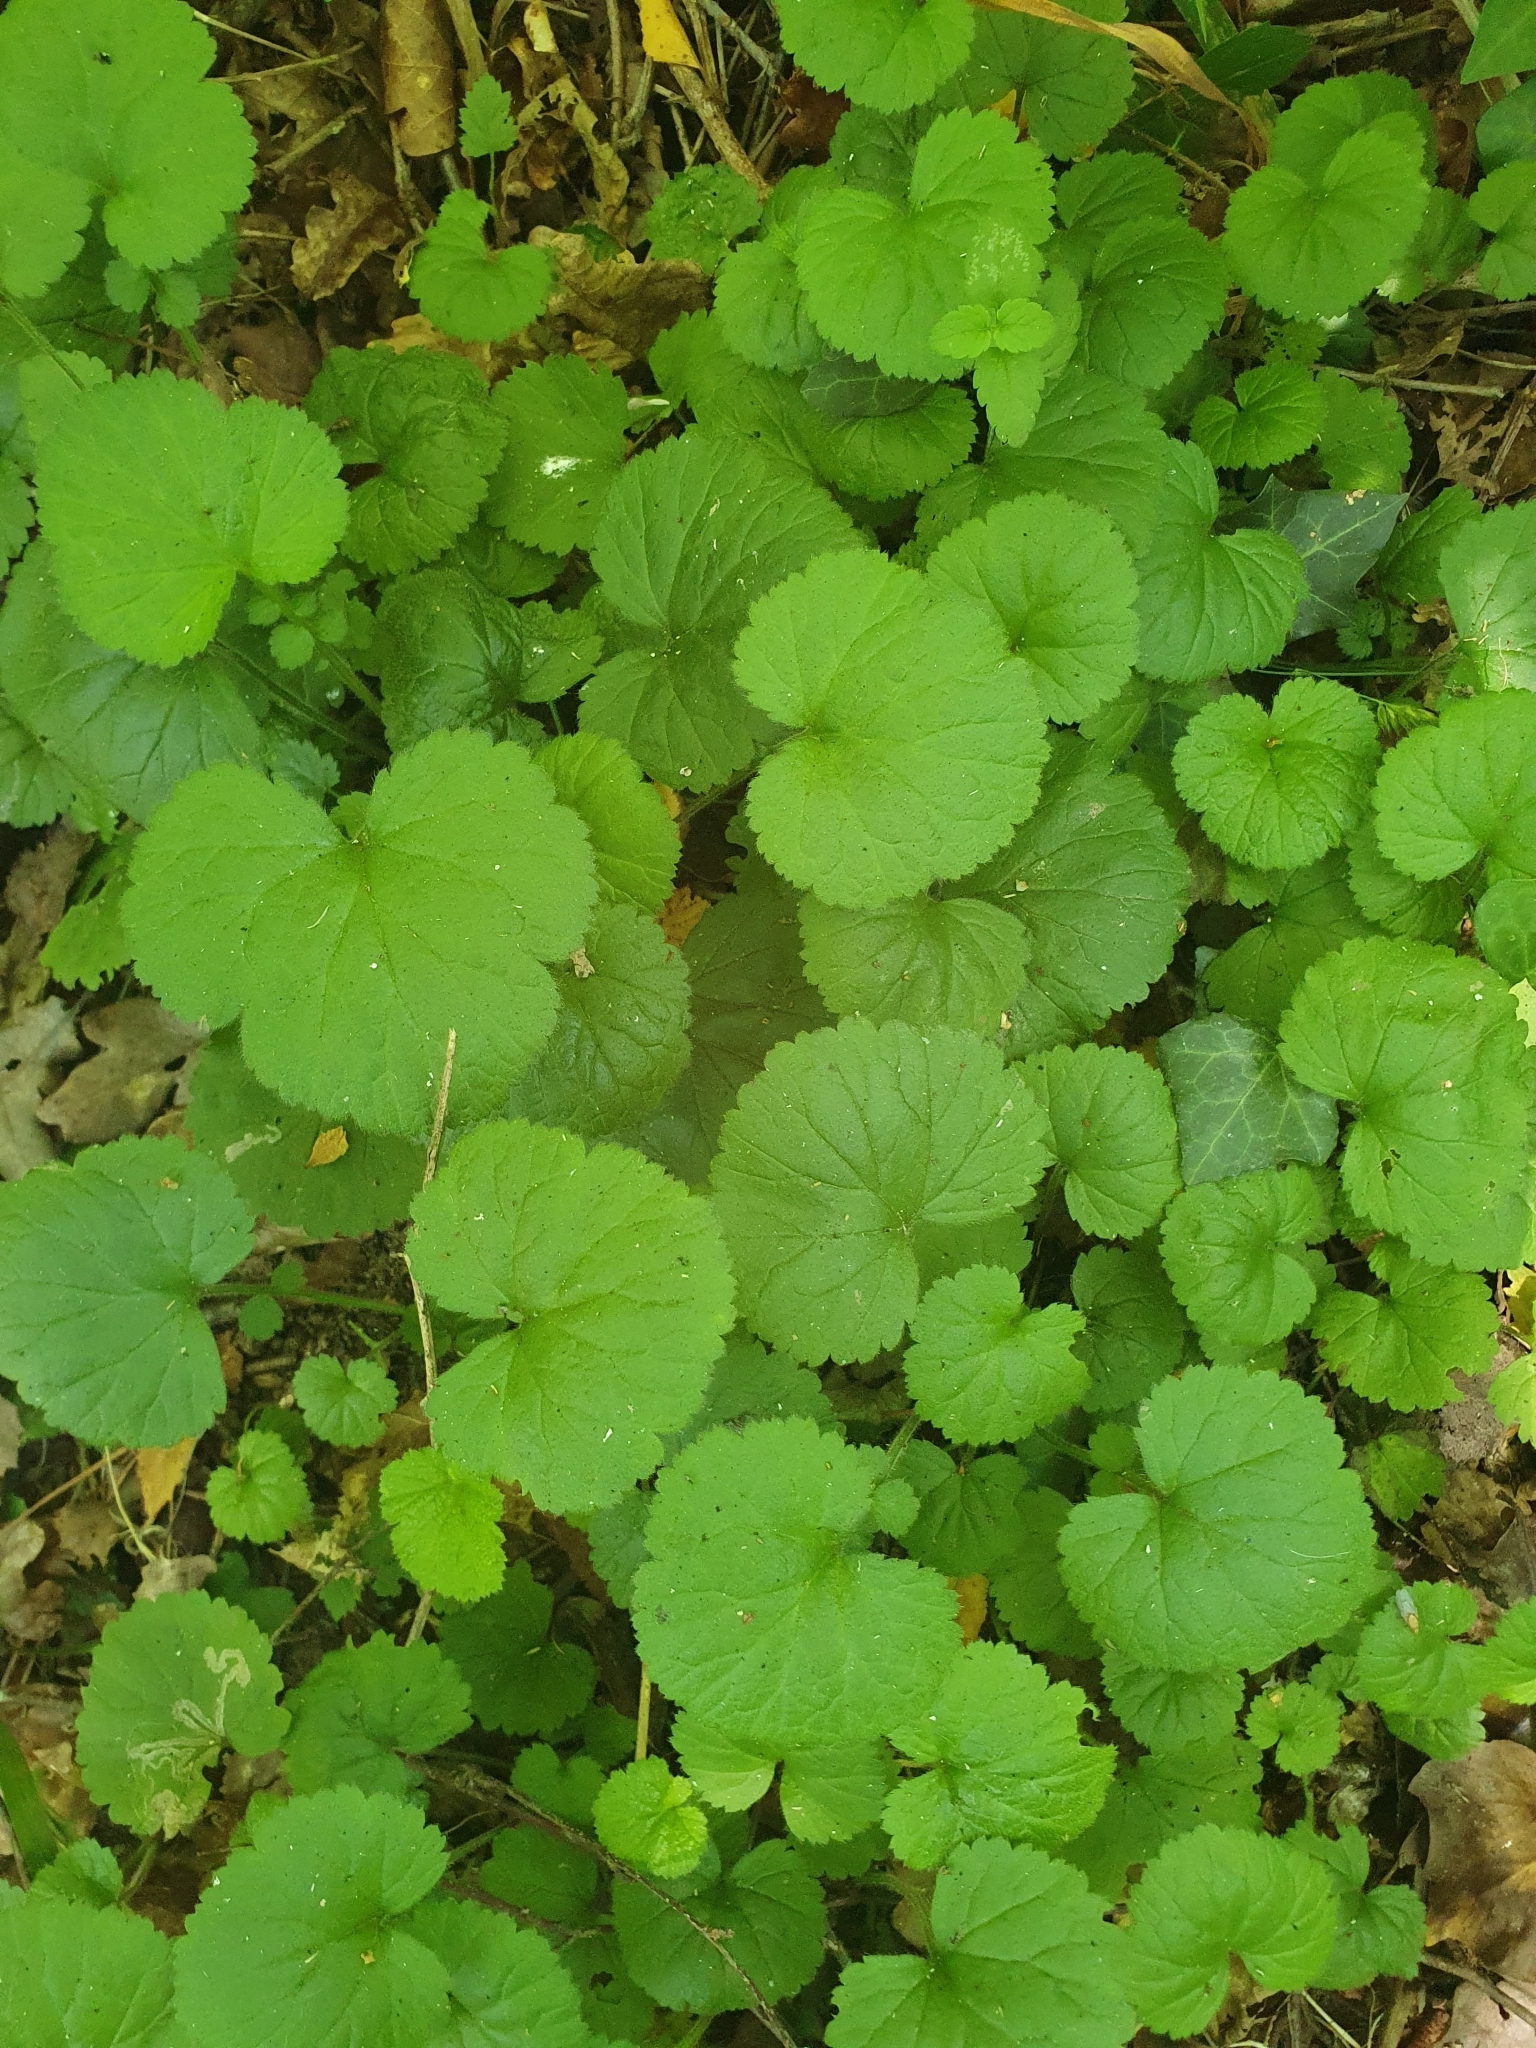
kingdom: Plantae
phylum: Tracheophyta
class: Magnoliopsida
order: Lamiales
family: Lamiaceae
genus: Glechoma
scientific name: Glechoma hederacea
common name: Ground ivy
